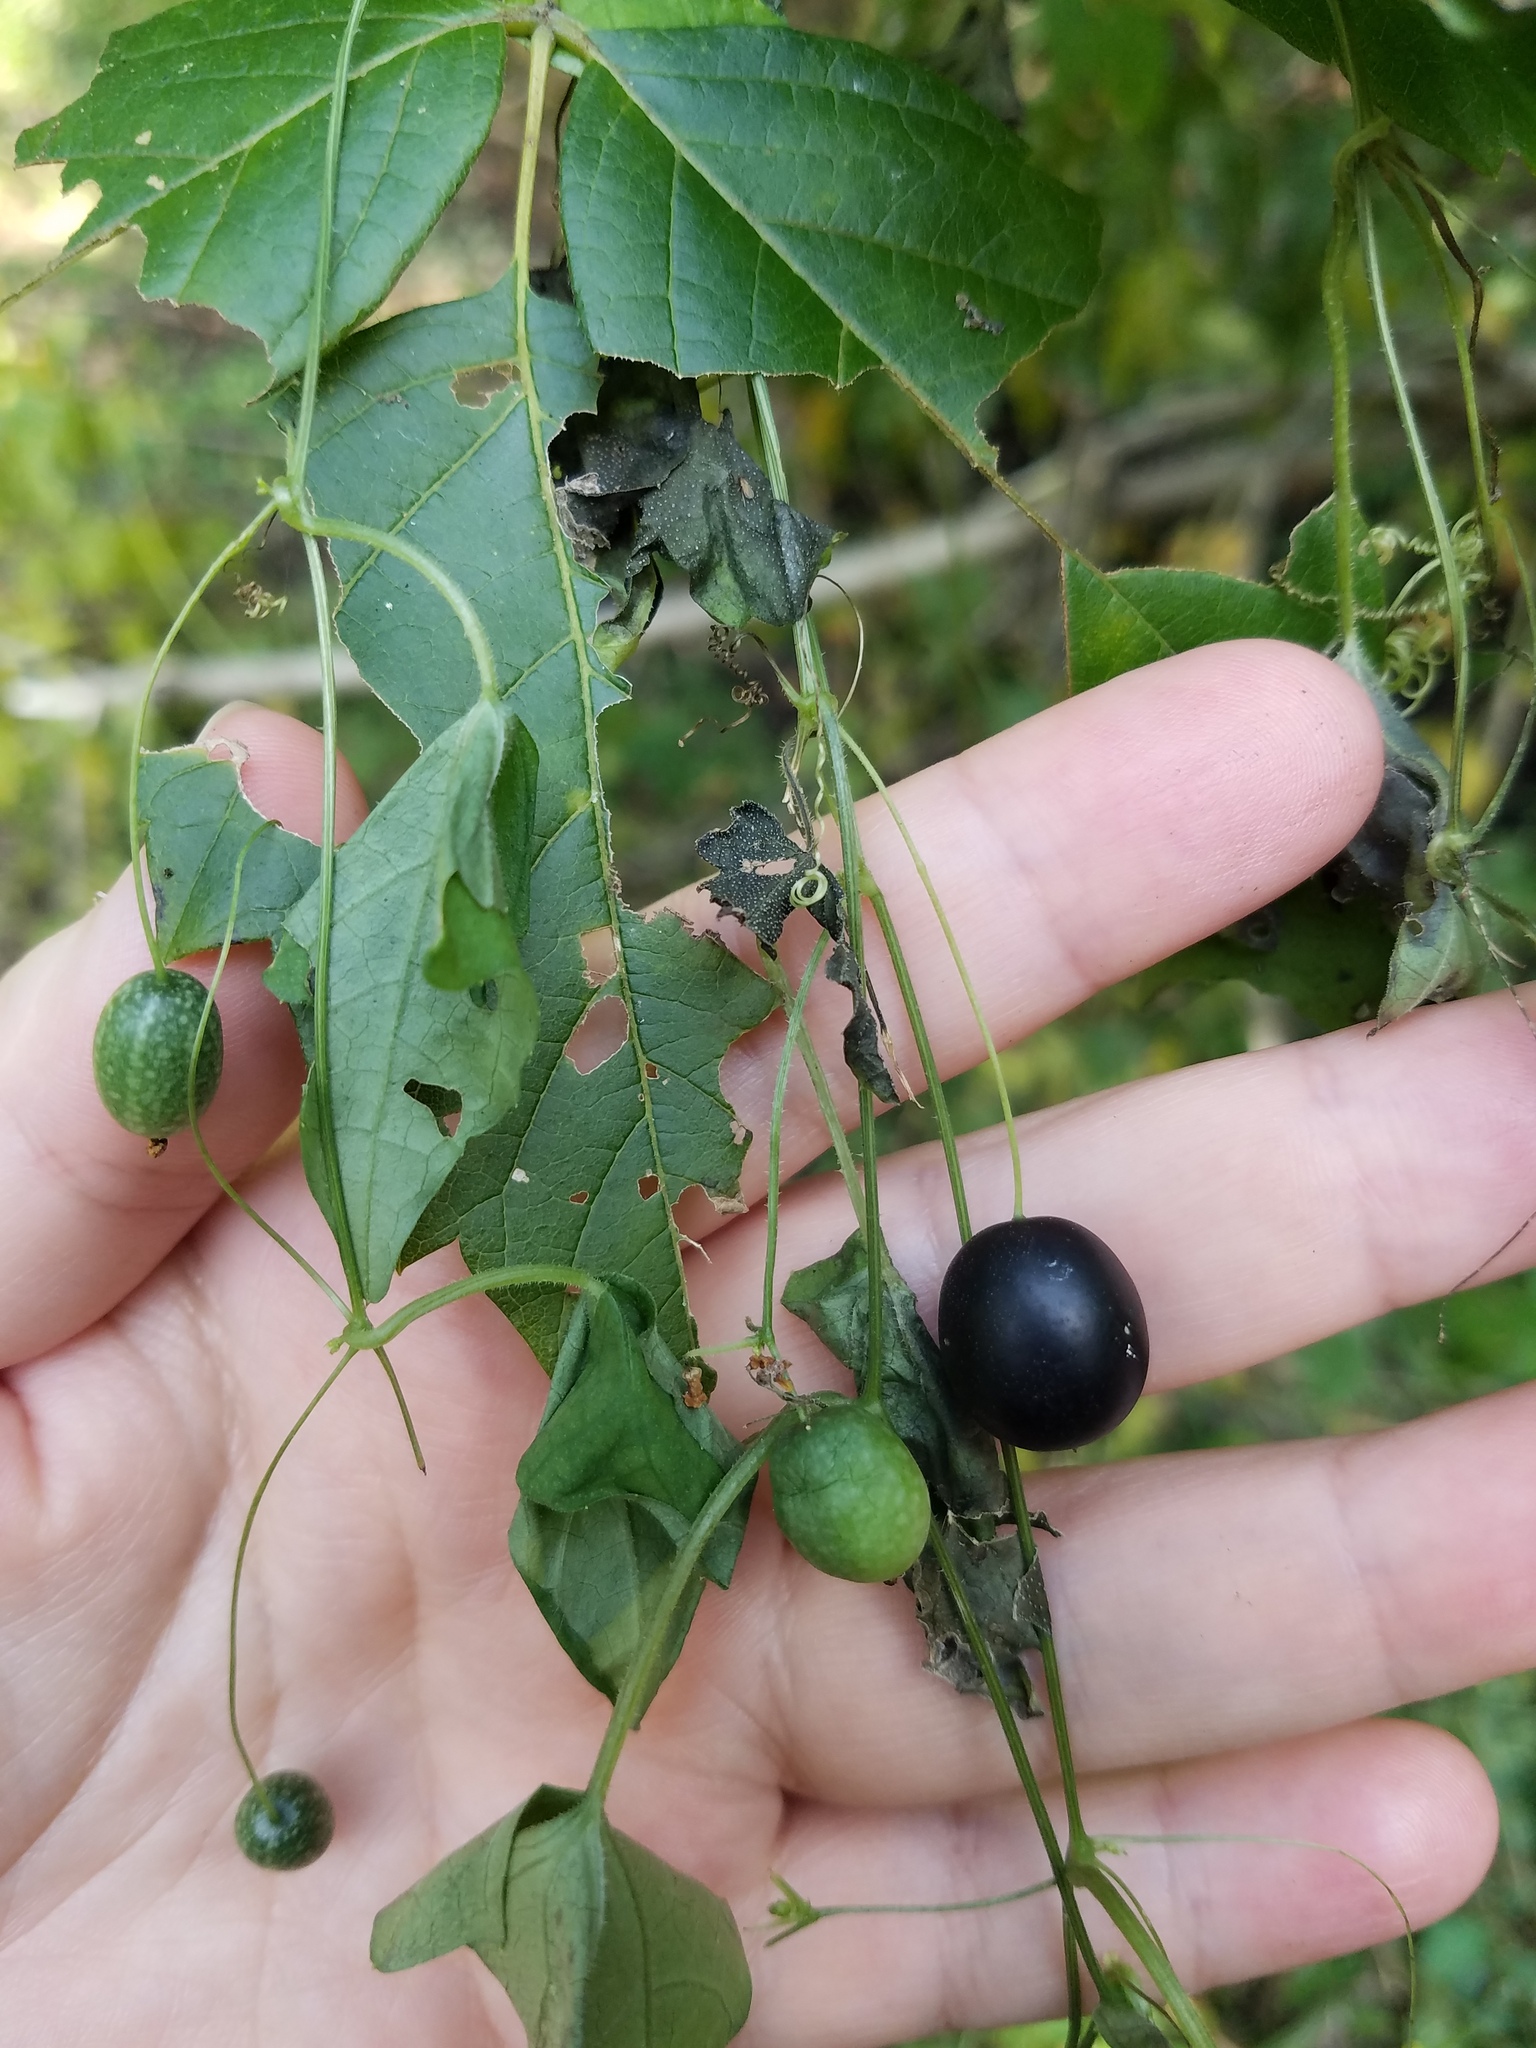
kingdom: Plantae
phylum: Tracheophyta
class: Magnoliopsida
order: Cucurbitales
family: Cucurbitaceae
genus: Melothria
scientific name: Melothria pendula
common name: Creeping-cucumber
